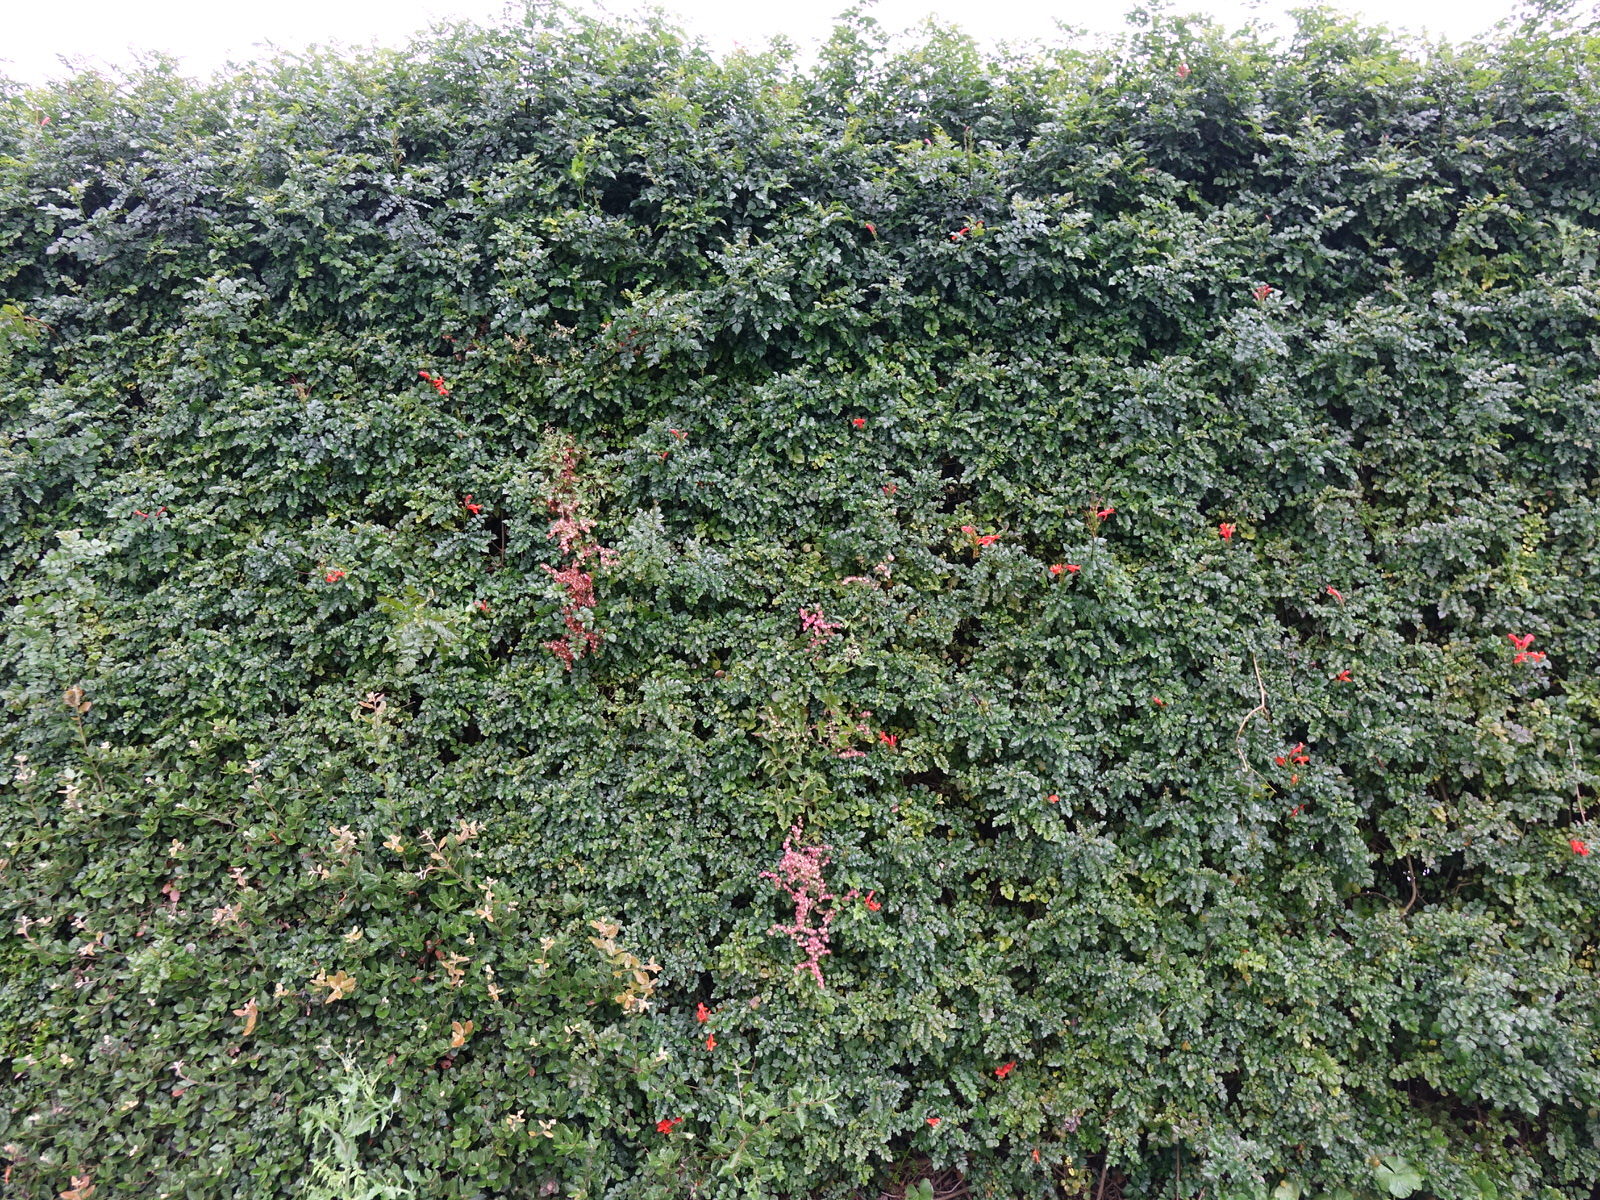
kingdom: Plantae
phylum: Tracheophyta
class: Magnoliopsida
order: Caryophyllales
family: Polygonaceae
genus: Rumex
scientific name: Rumex sagittatus
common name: Climbing dock
